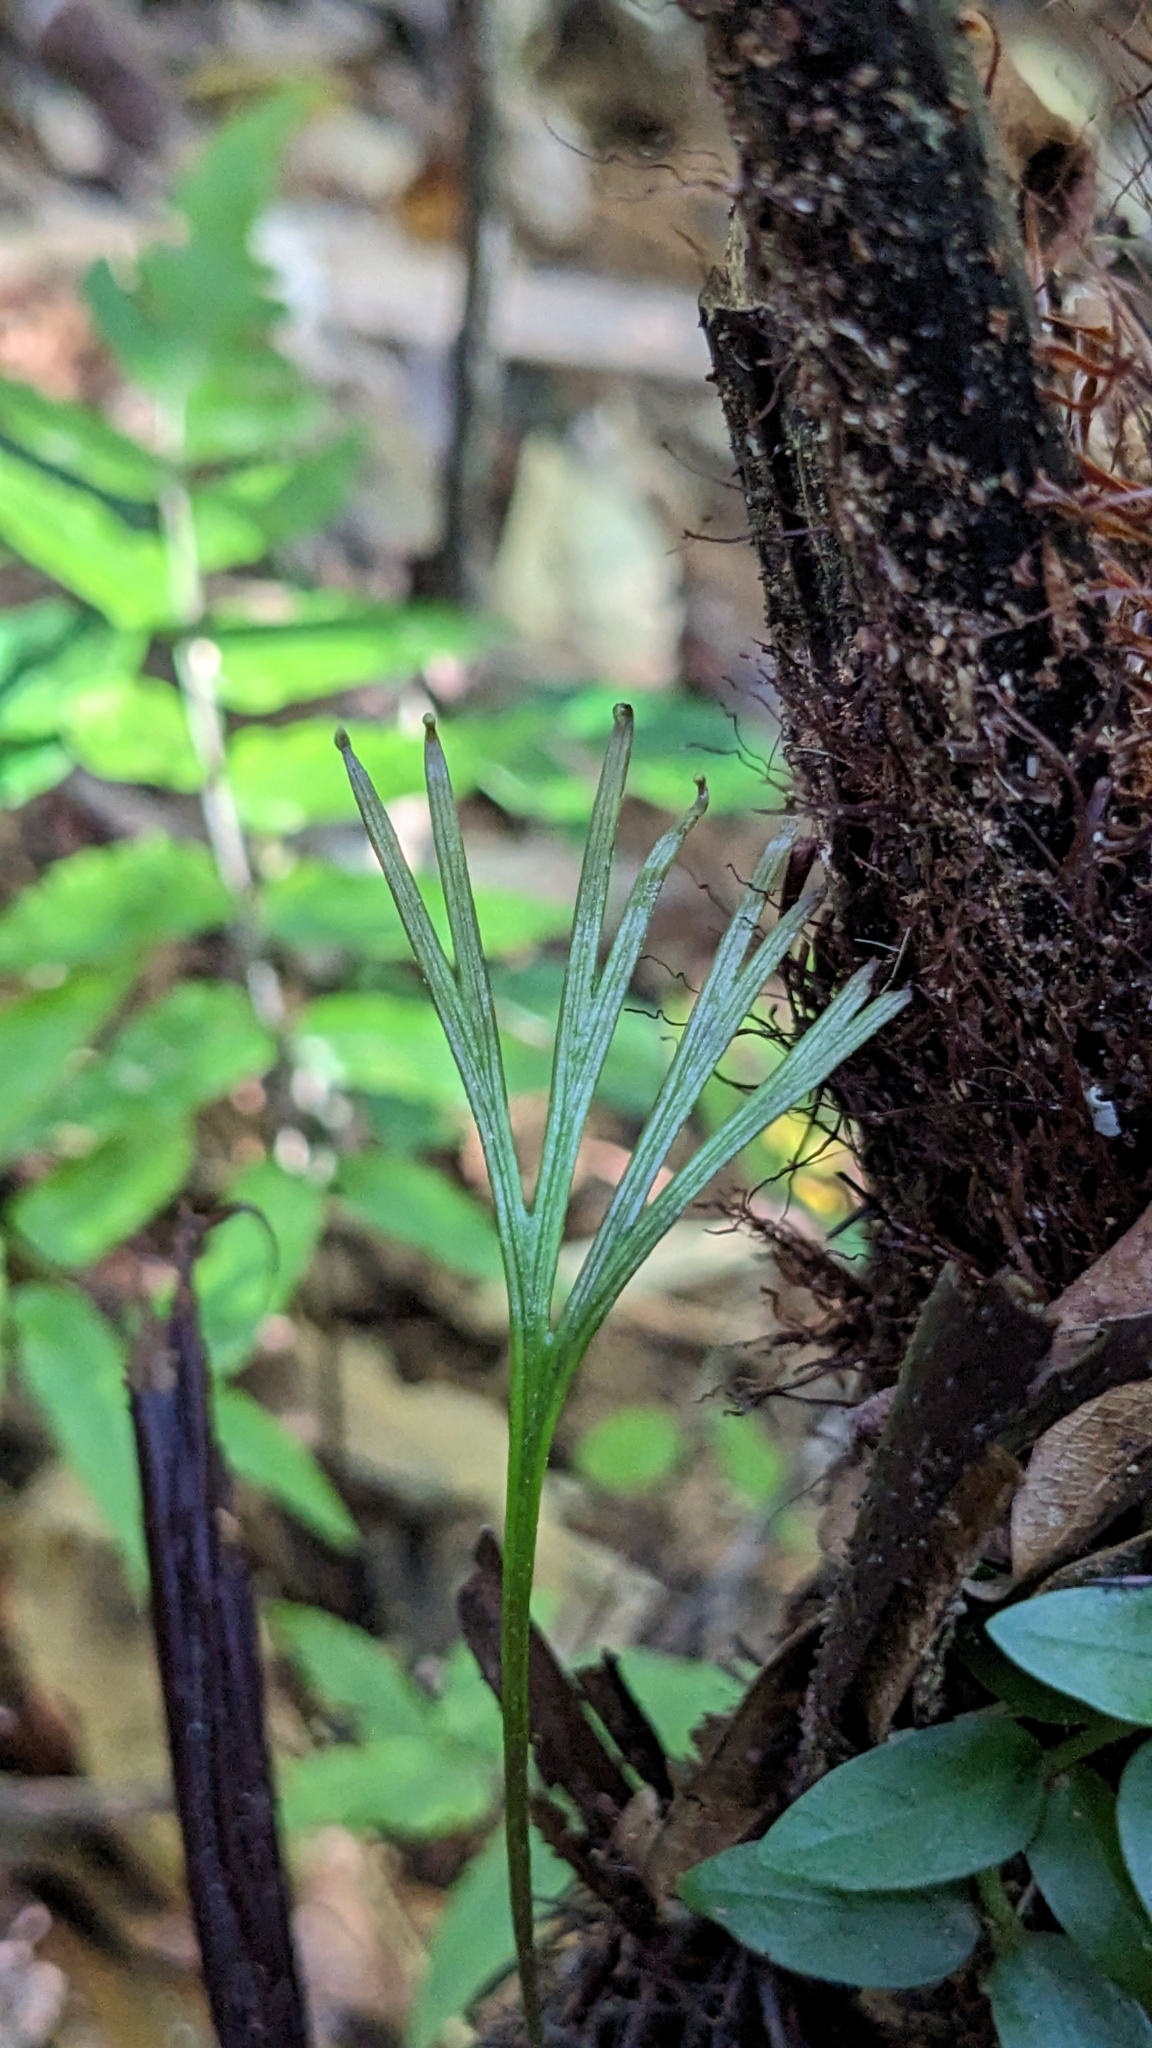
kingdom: Plantae
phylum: Tracheophyta
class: Polypodiopsida
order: Schizaeales
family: Schizaeaceae
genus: Schizaea
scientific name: Schizaea dichotoma
